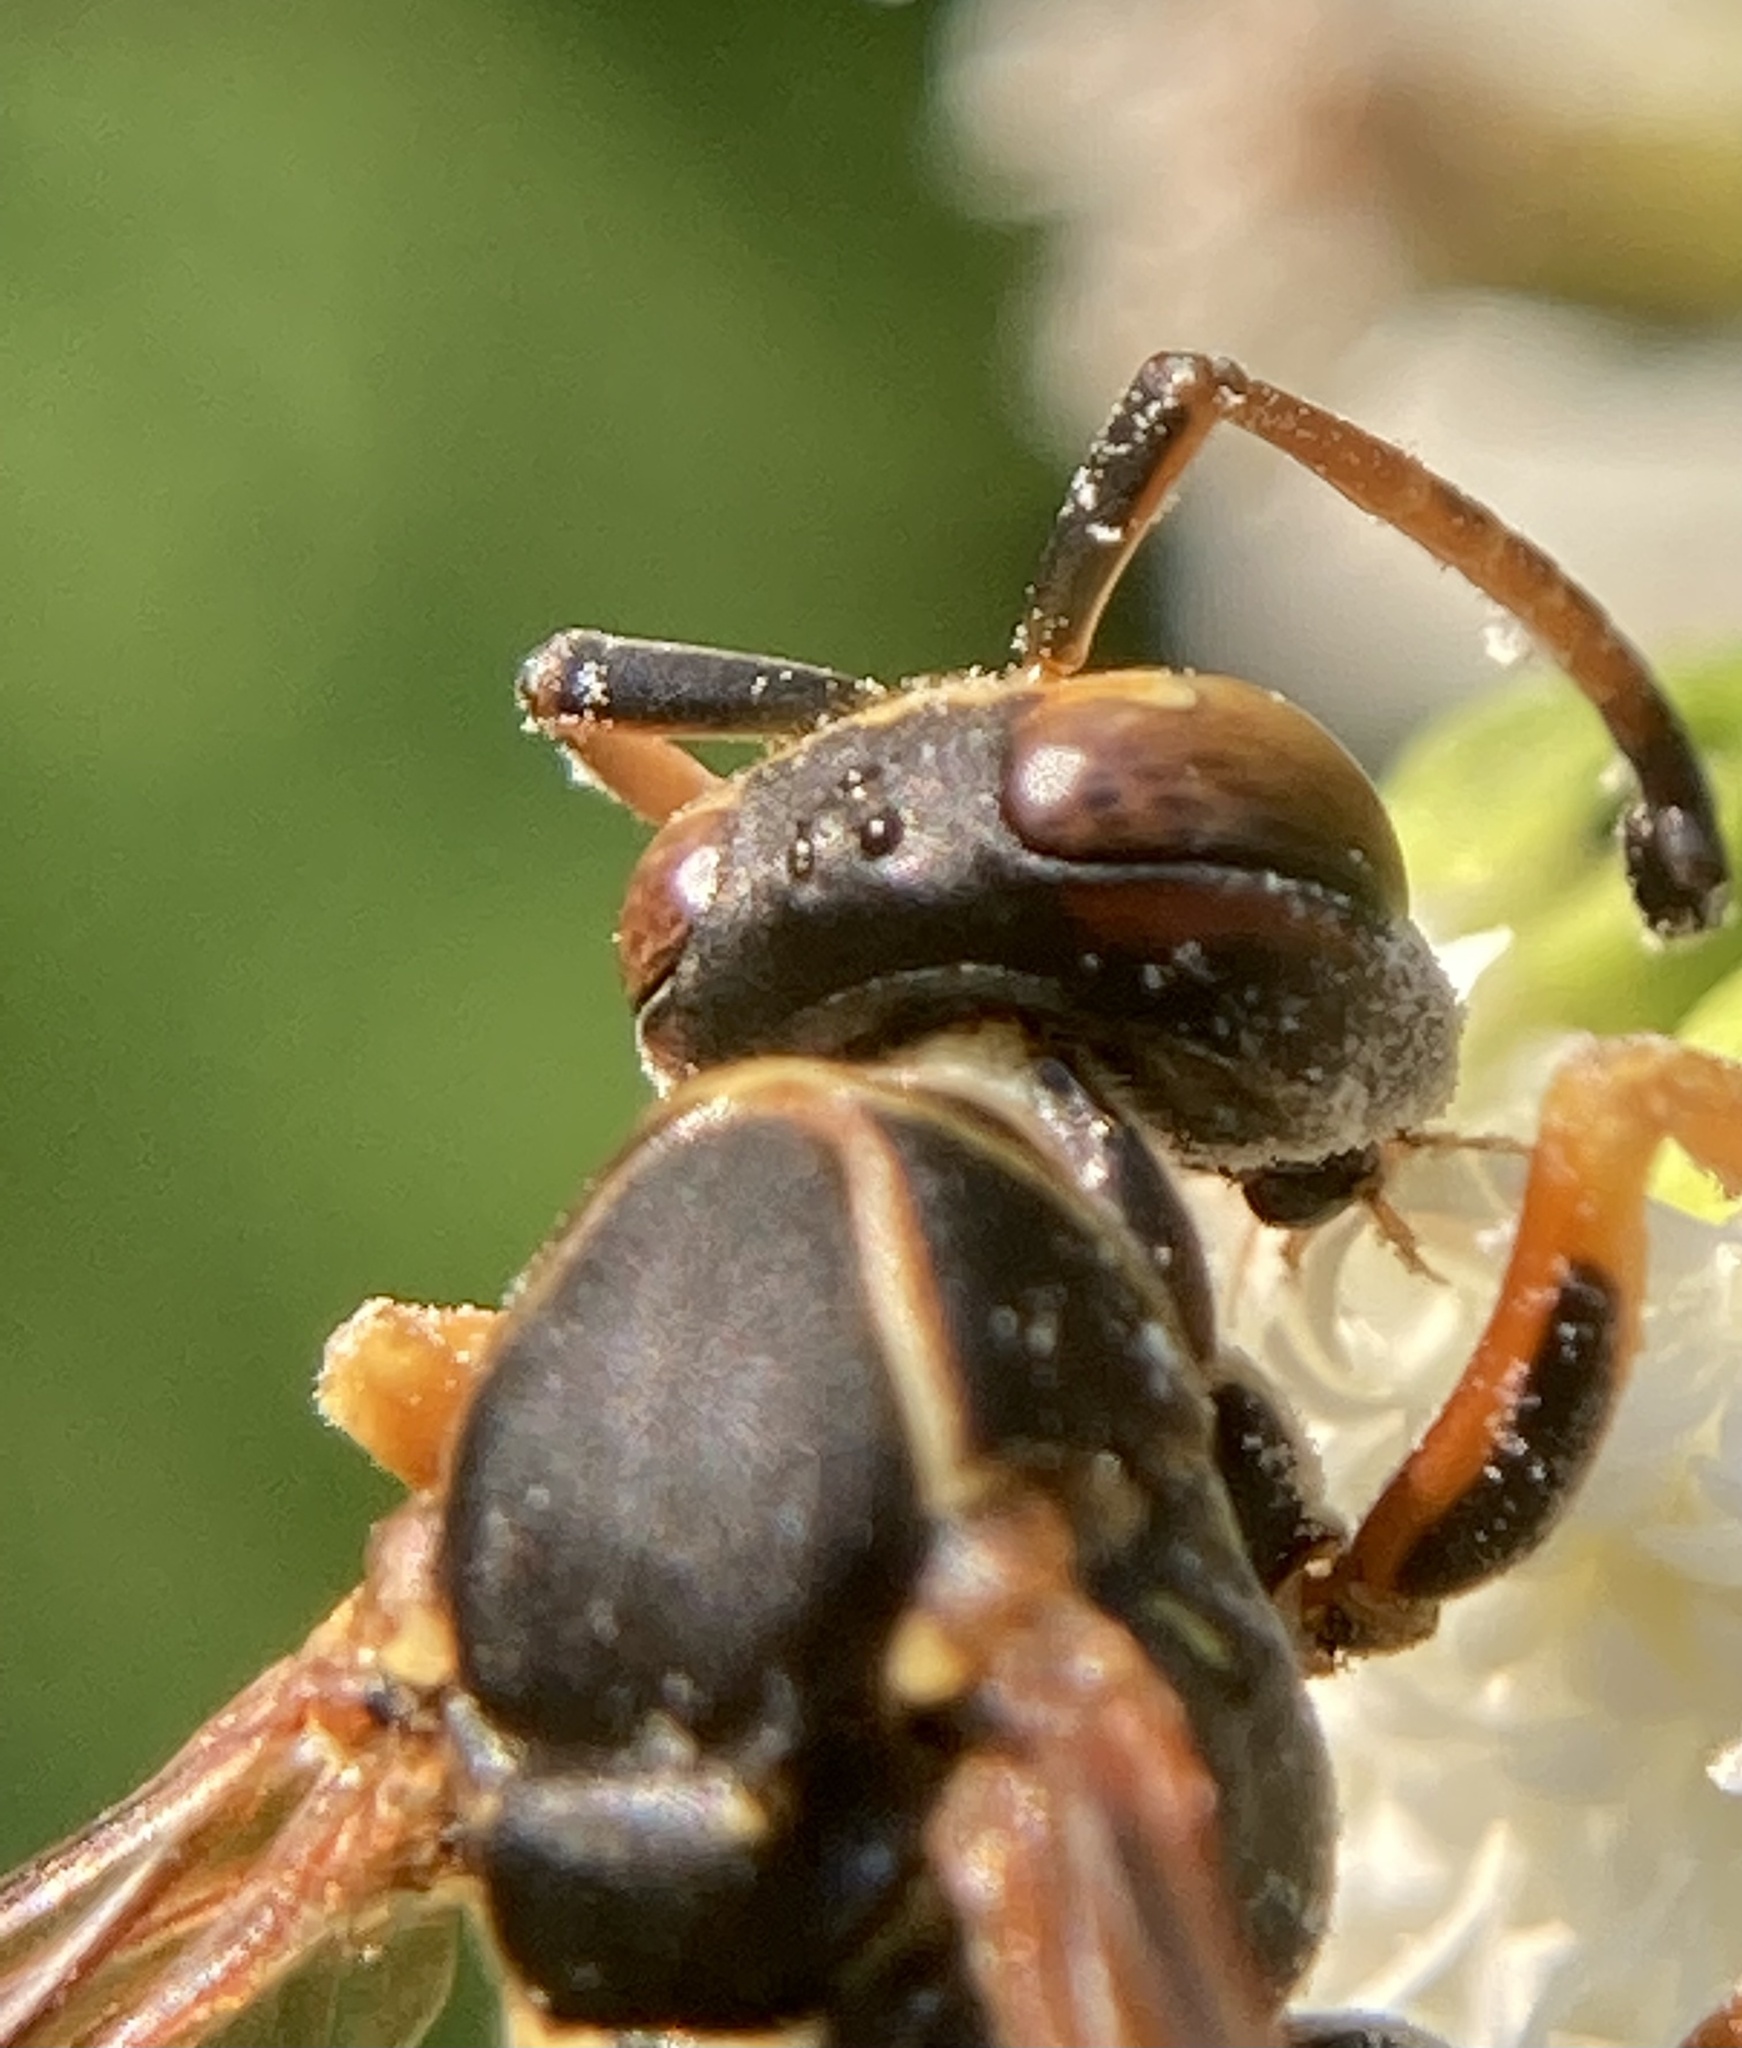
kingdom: Animalia
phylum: Arthropoda
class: Insecta
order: Hymenoptera
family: Eumenidae
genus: Polistes
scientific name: Polistes fuscatus
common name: Dark paper wasp
